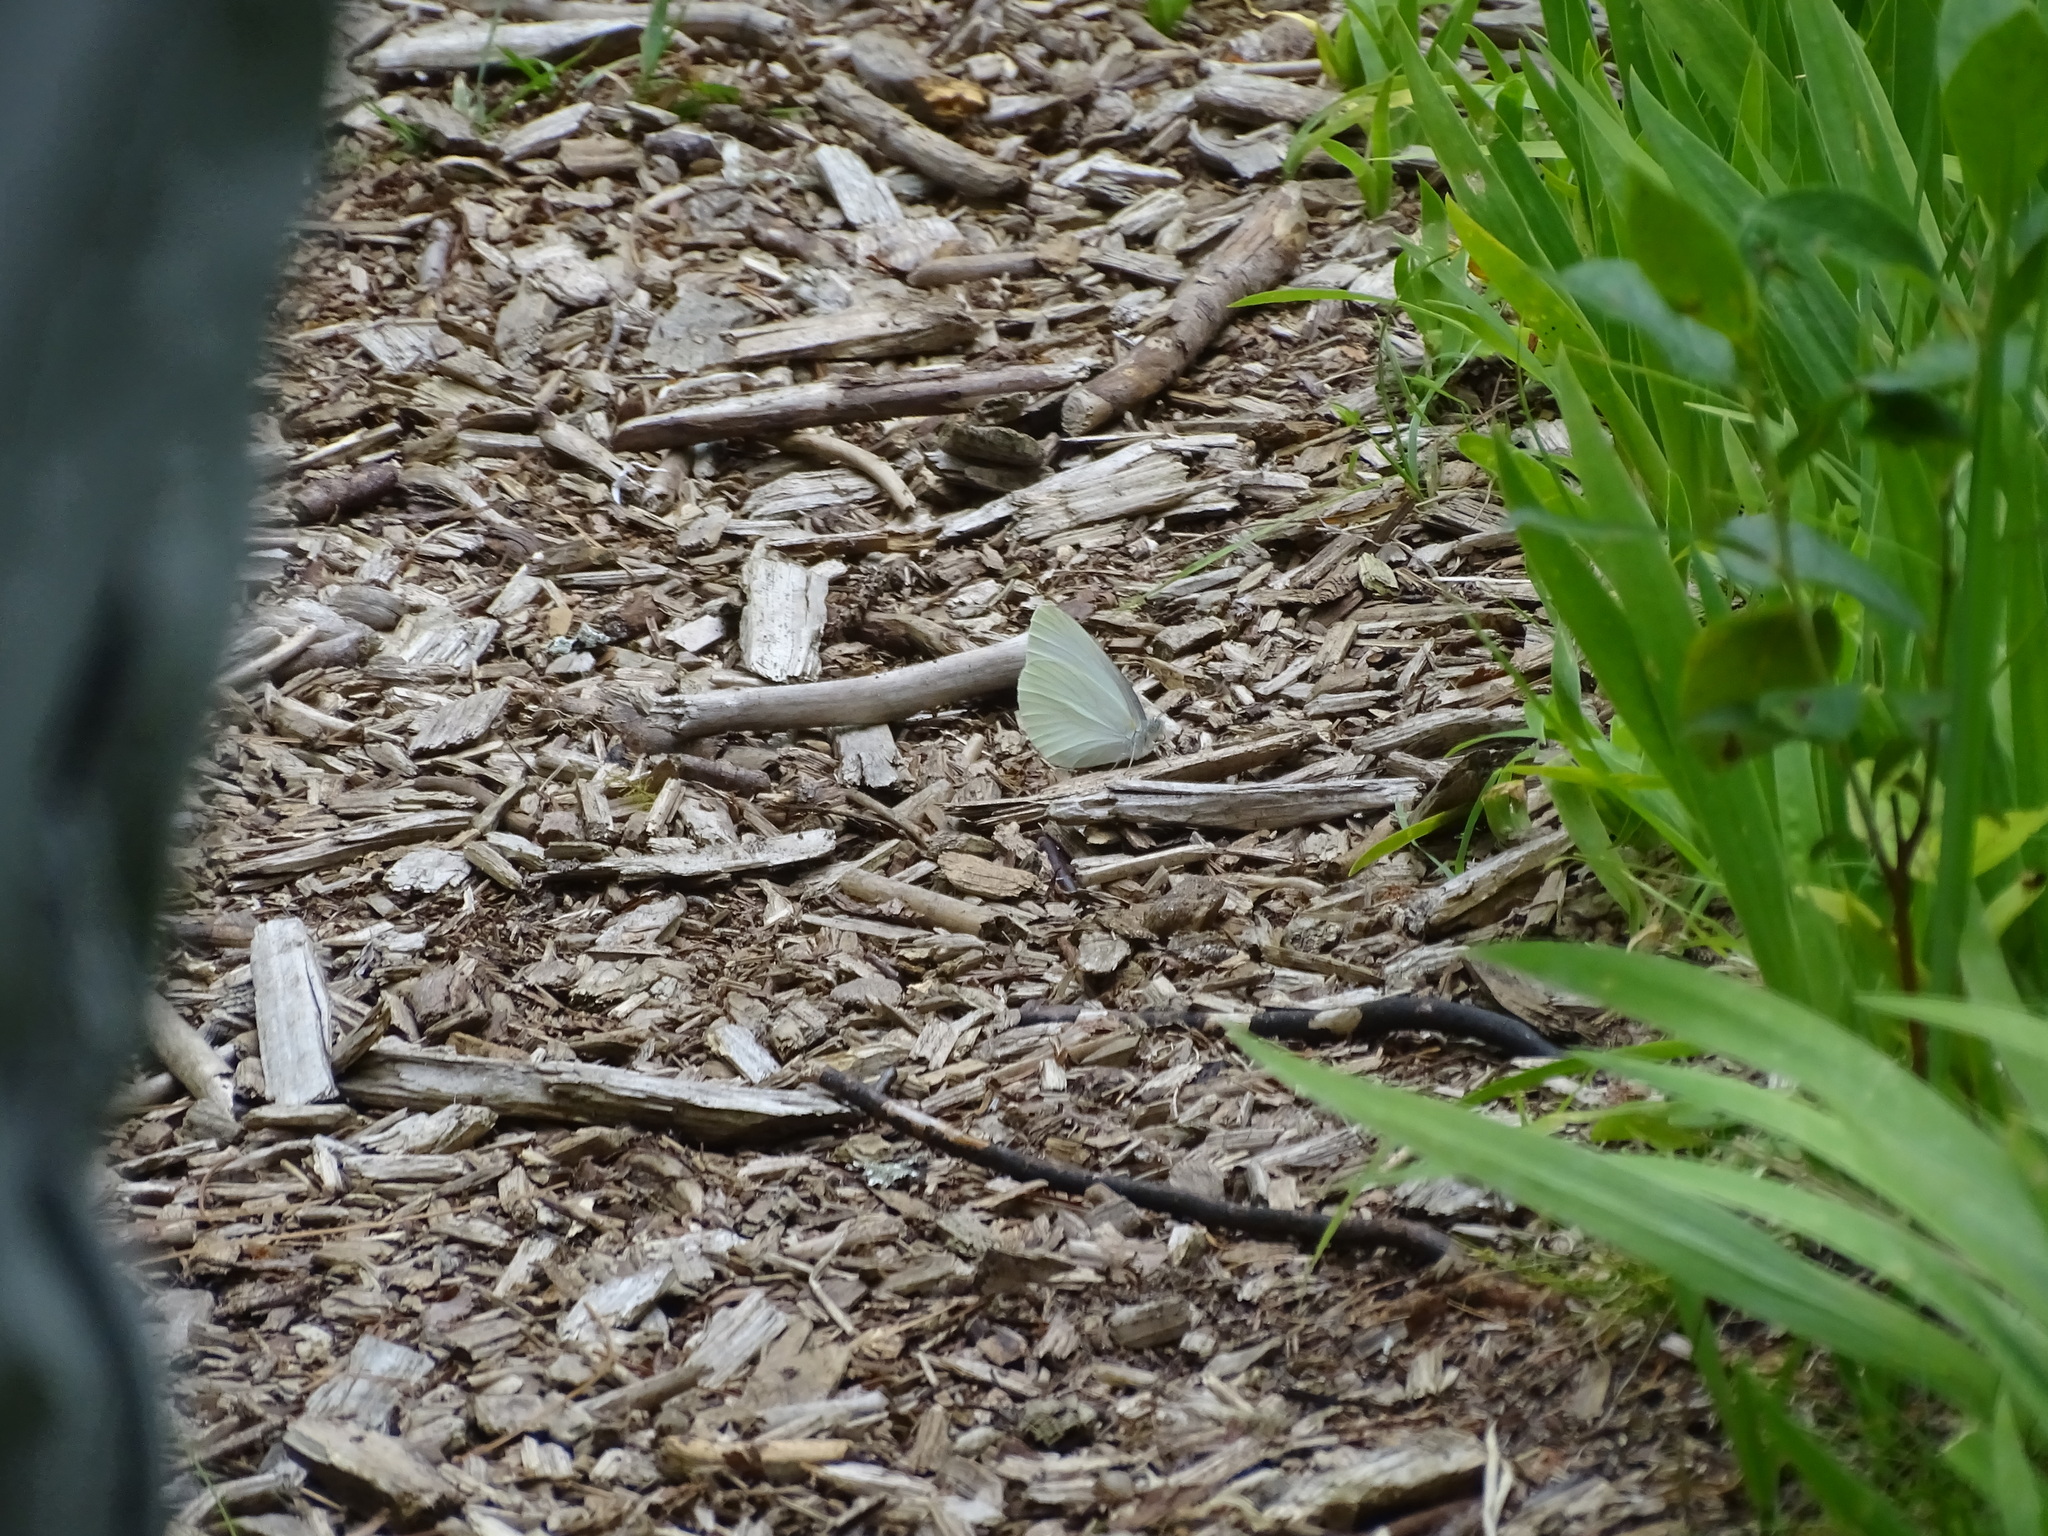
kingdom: Animalia
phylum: Arthropoda
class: Insecta
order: Lepidoptera
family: Pieridae
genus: Pieris
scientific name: Pieris oleracea
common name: Mustard white
